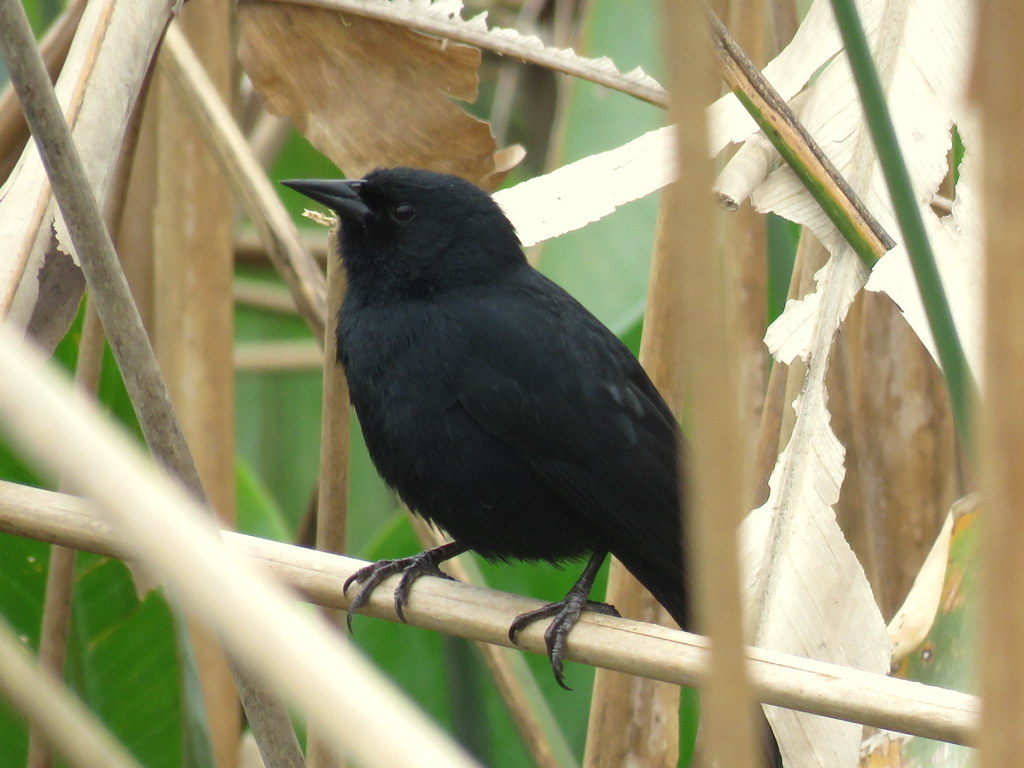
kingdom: Animalia
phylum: Chordata
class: Aves
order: Passeriformes
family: Icteridae
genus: Agelasticus
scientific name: Agelasticus cyanopus
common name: Unicolored blackbird
